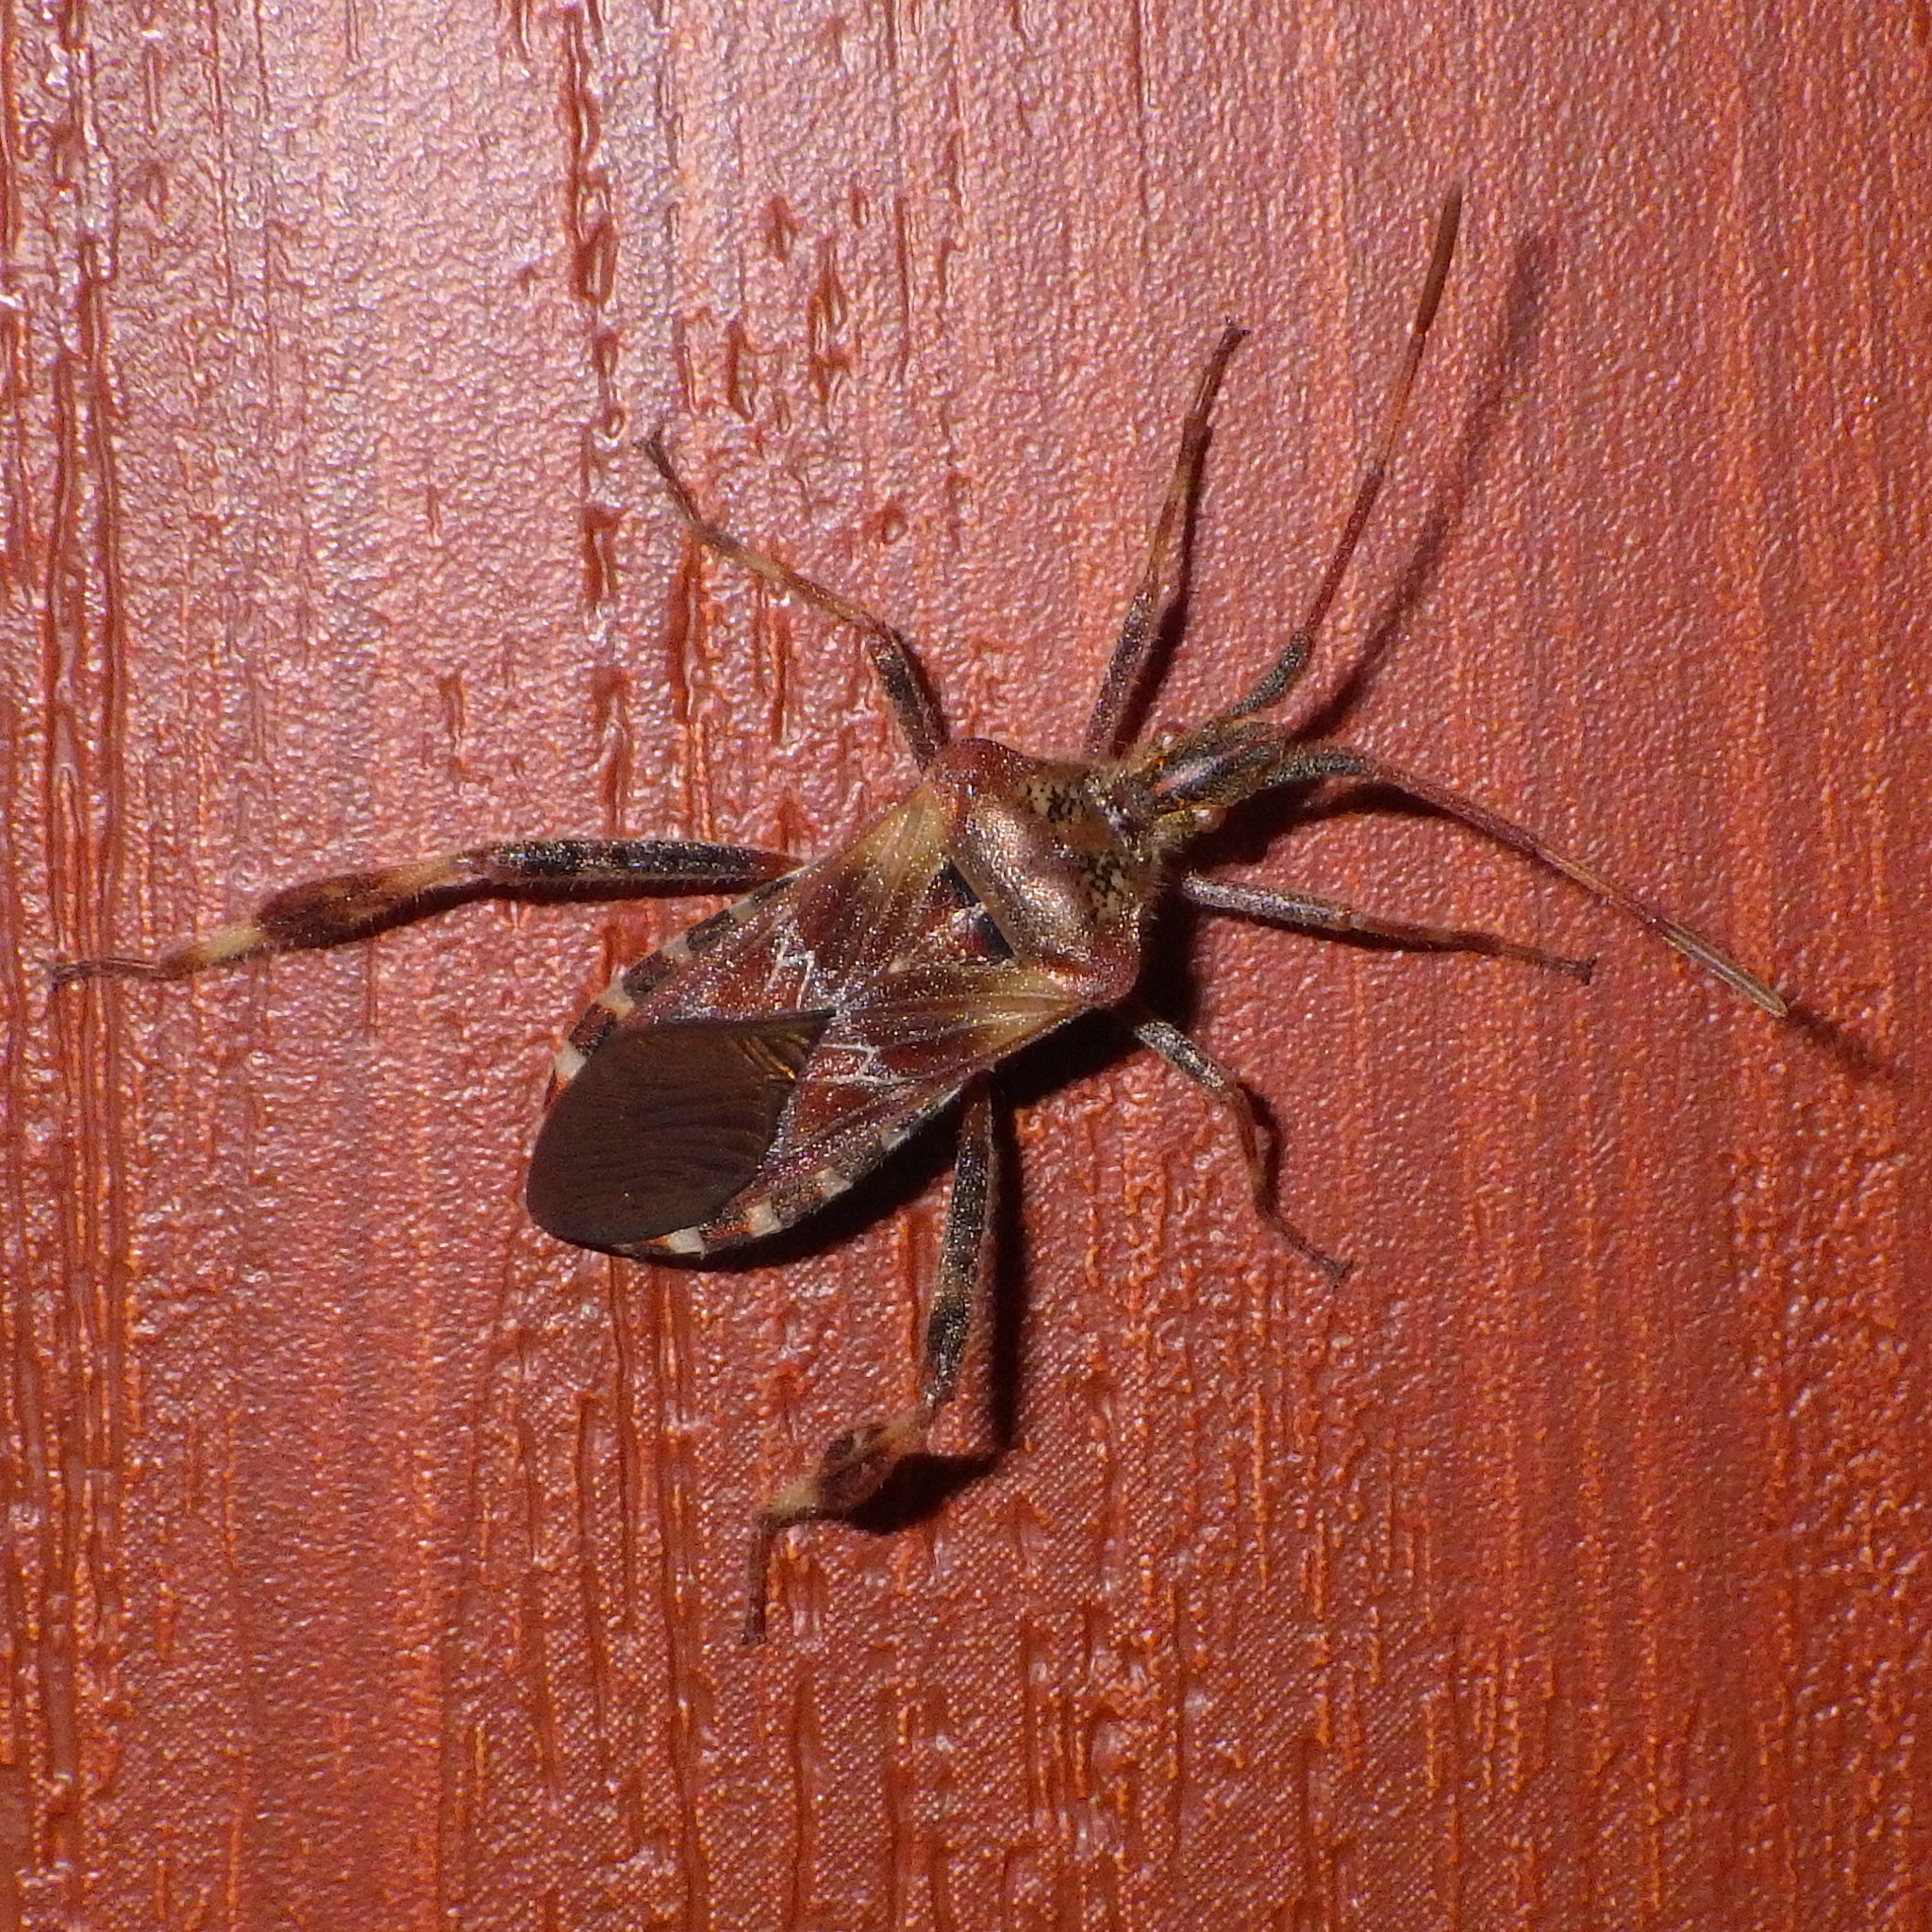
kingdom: Animalia
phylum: Arthropoda
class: Insecta
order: Hemiptera
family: Coreidae
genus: Leptoglossus
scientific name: Leptoglossus occidentalis
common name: Western conifer-seed bug
